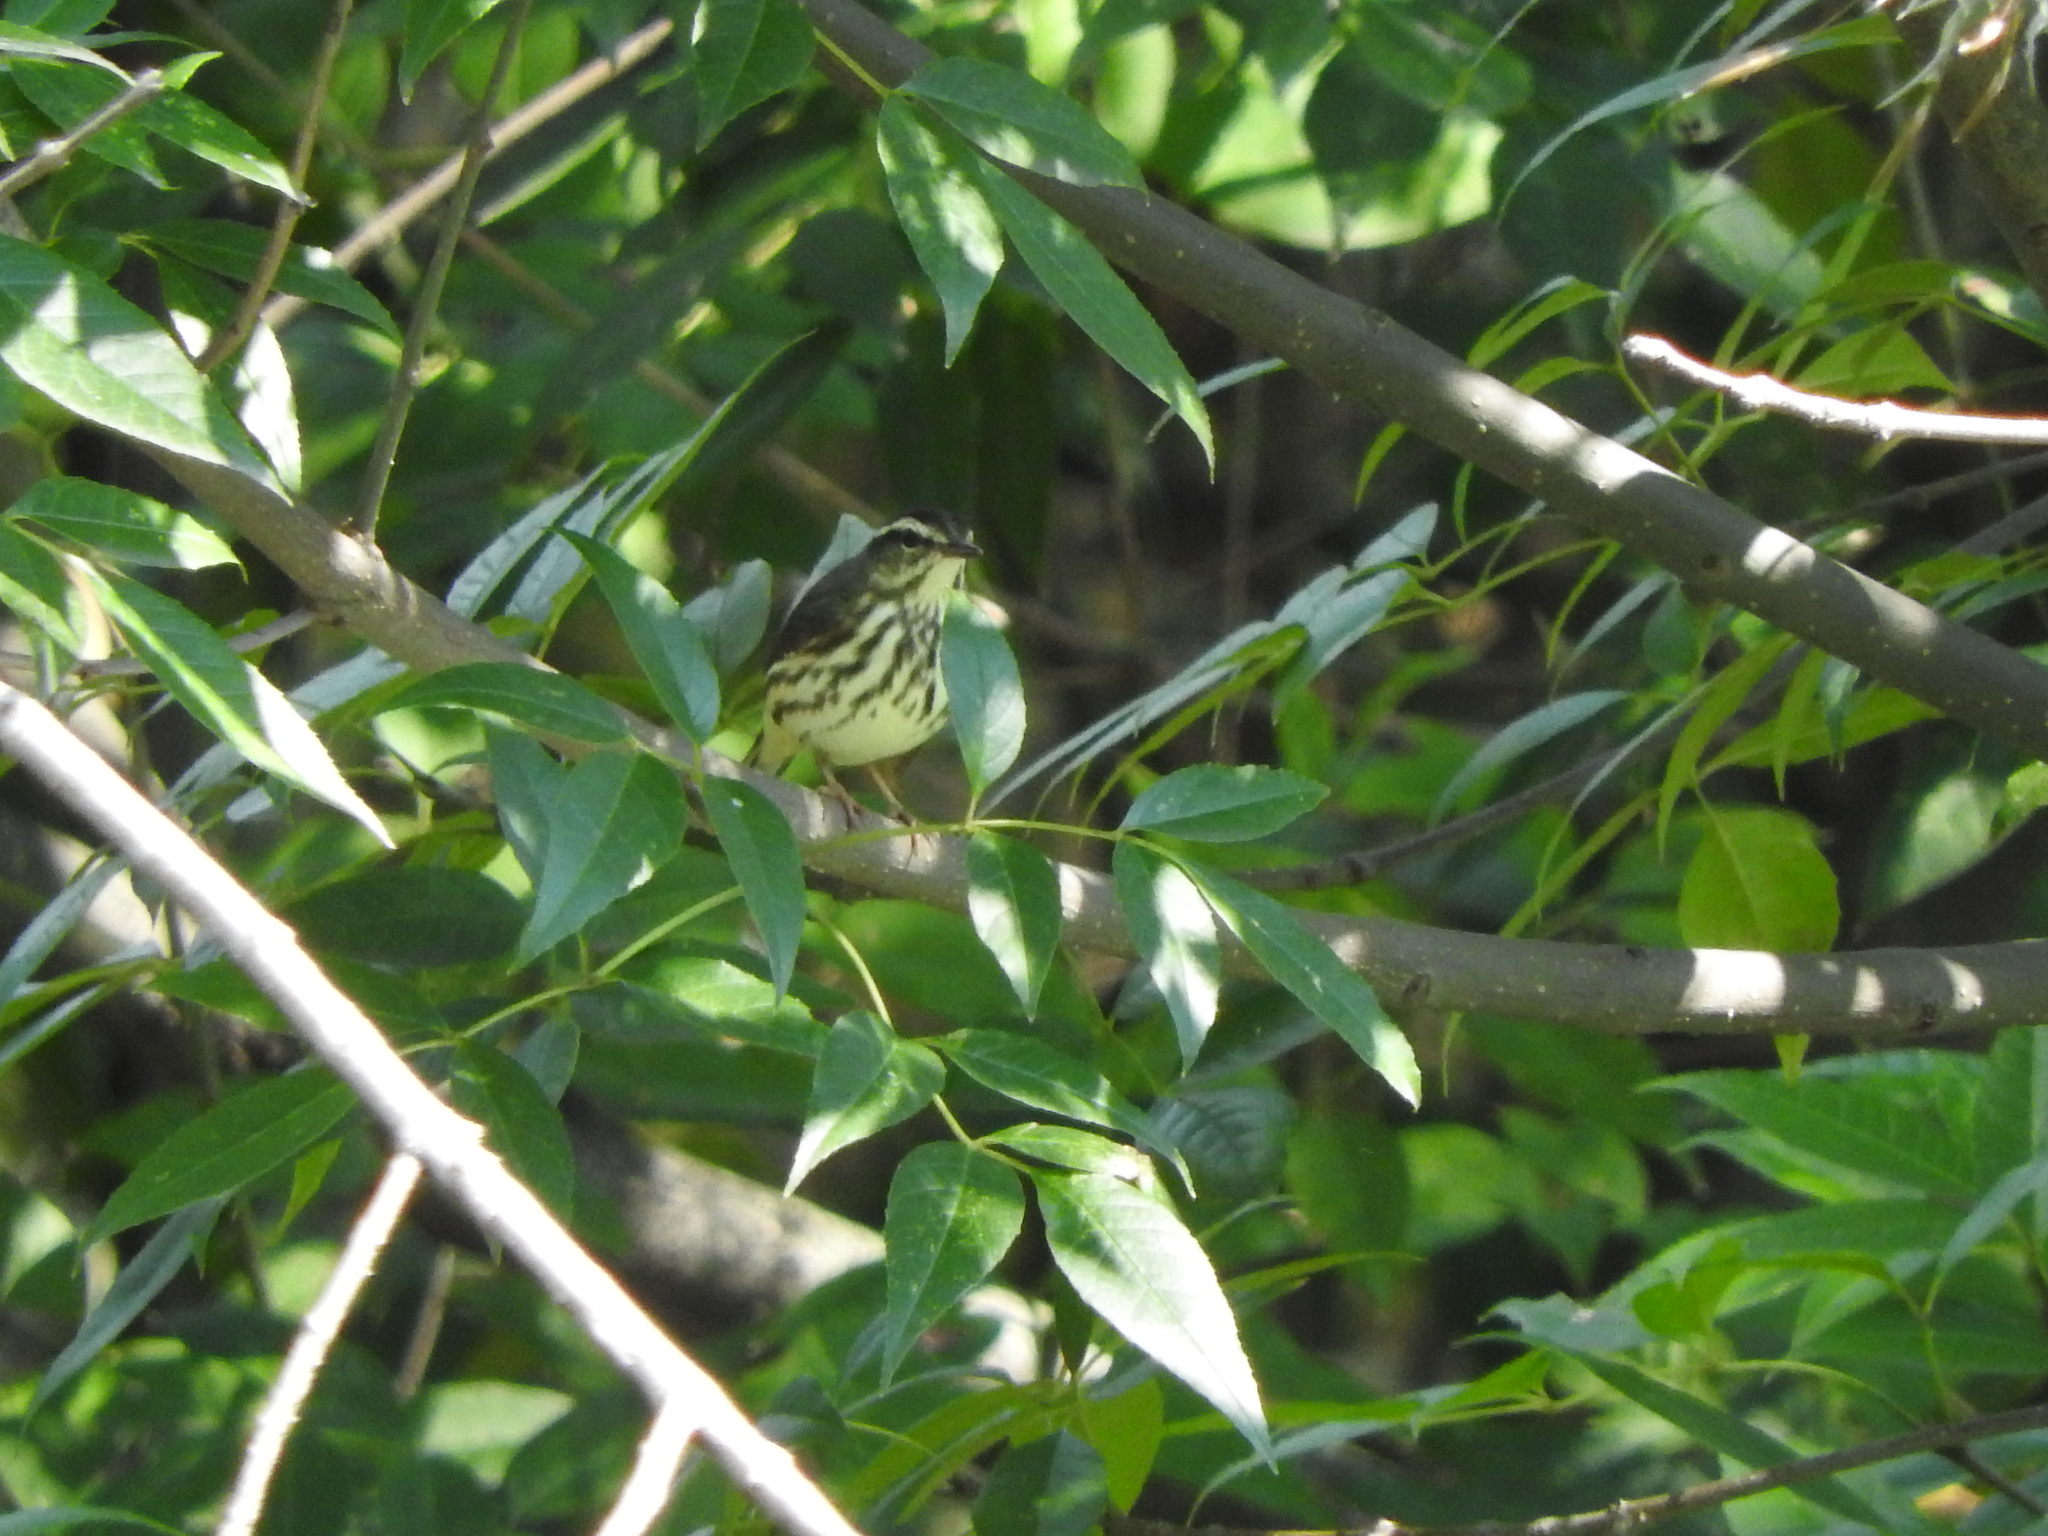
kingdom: Animalia
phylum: Chordata
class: Aves
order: Passeriformes
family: Parulidae
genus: Parkesia
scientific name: Parkesia motacilla
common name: Louisiana waterthrush
